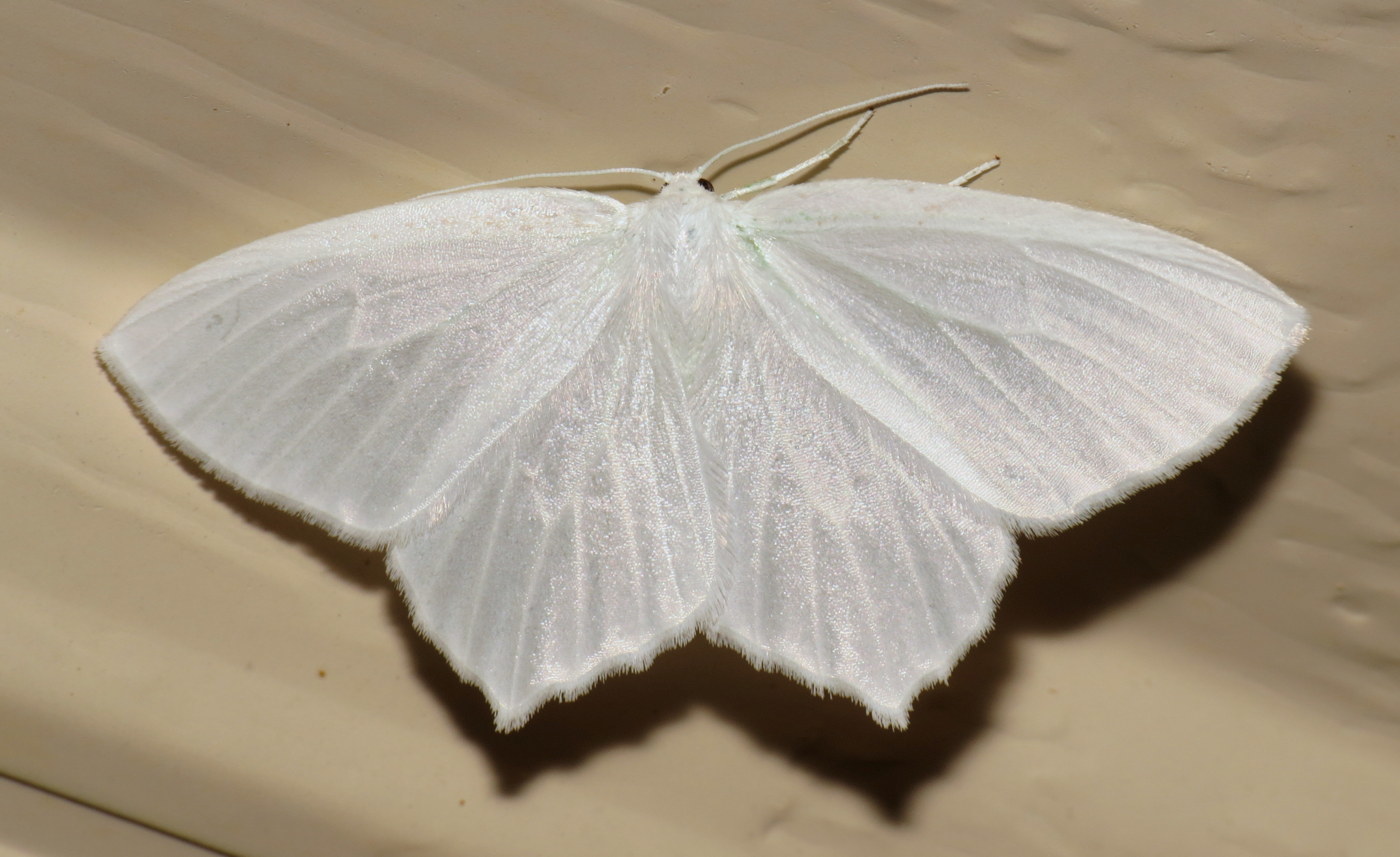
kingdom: Animalia
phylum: Arthropoda
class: Insecta
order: Lepidoptera
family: Geometridae
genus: Eugonobapta
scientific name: Eugonobapta nivosaria
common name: Snowy geometer
